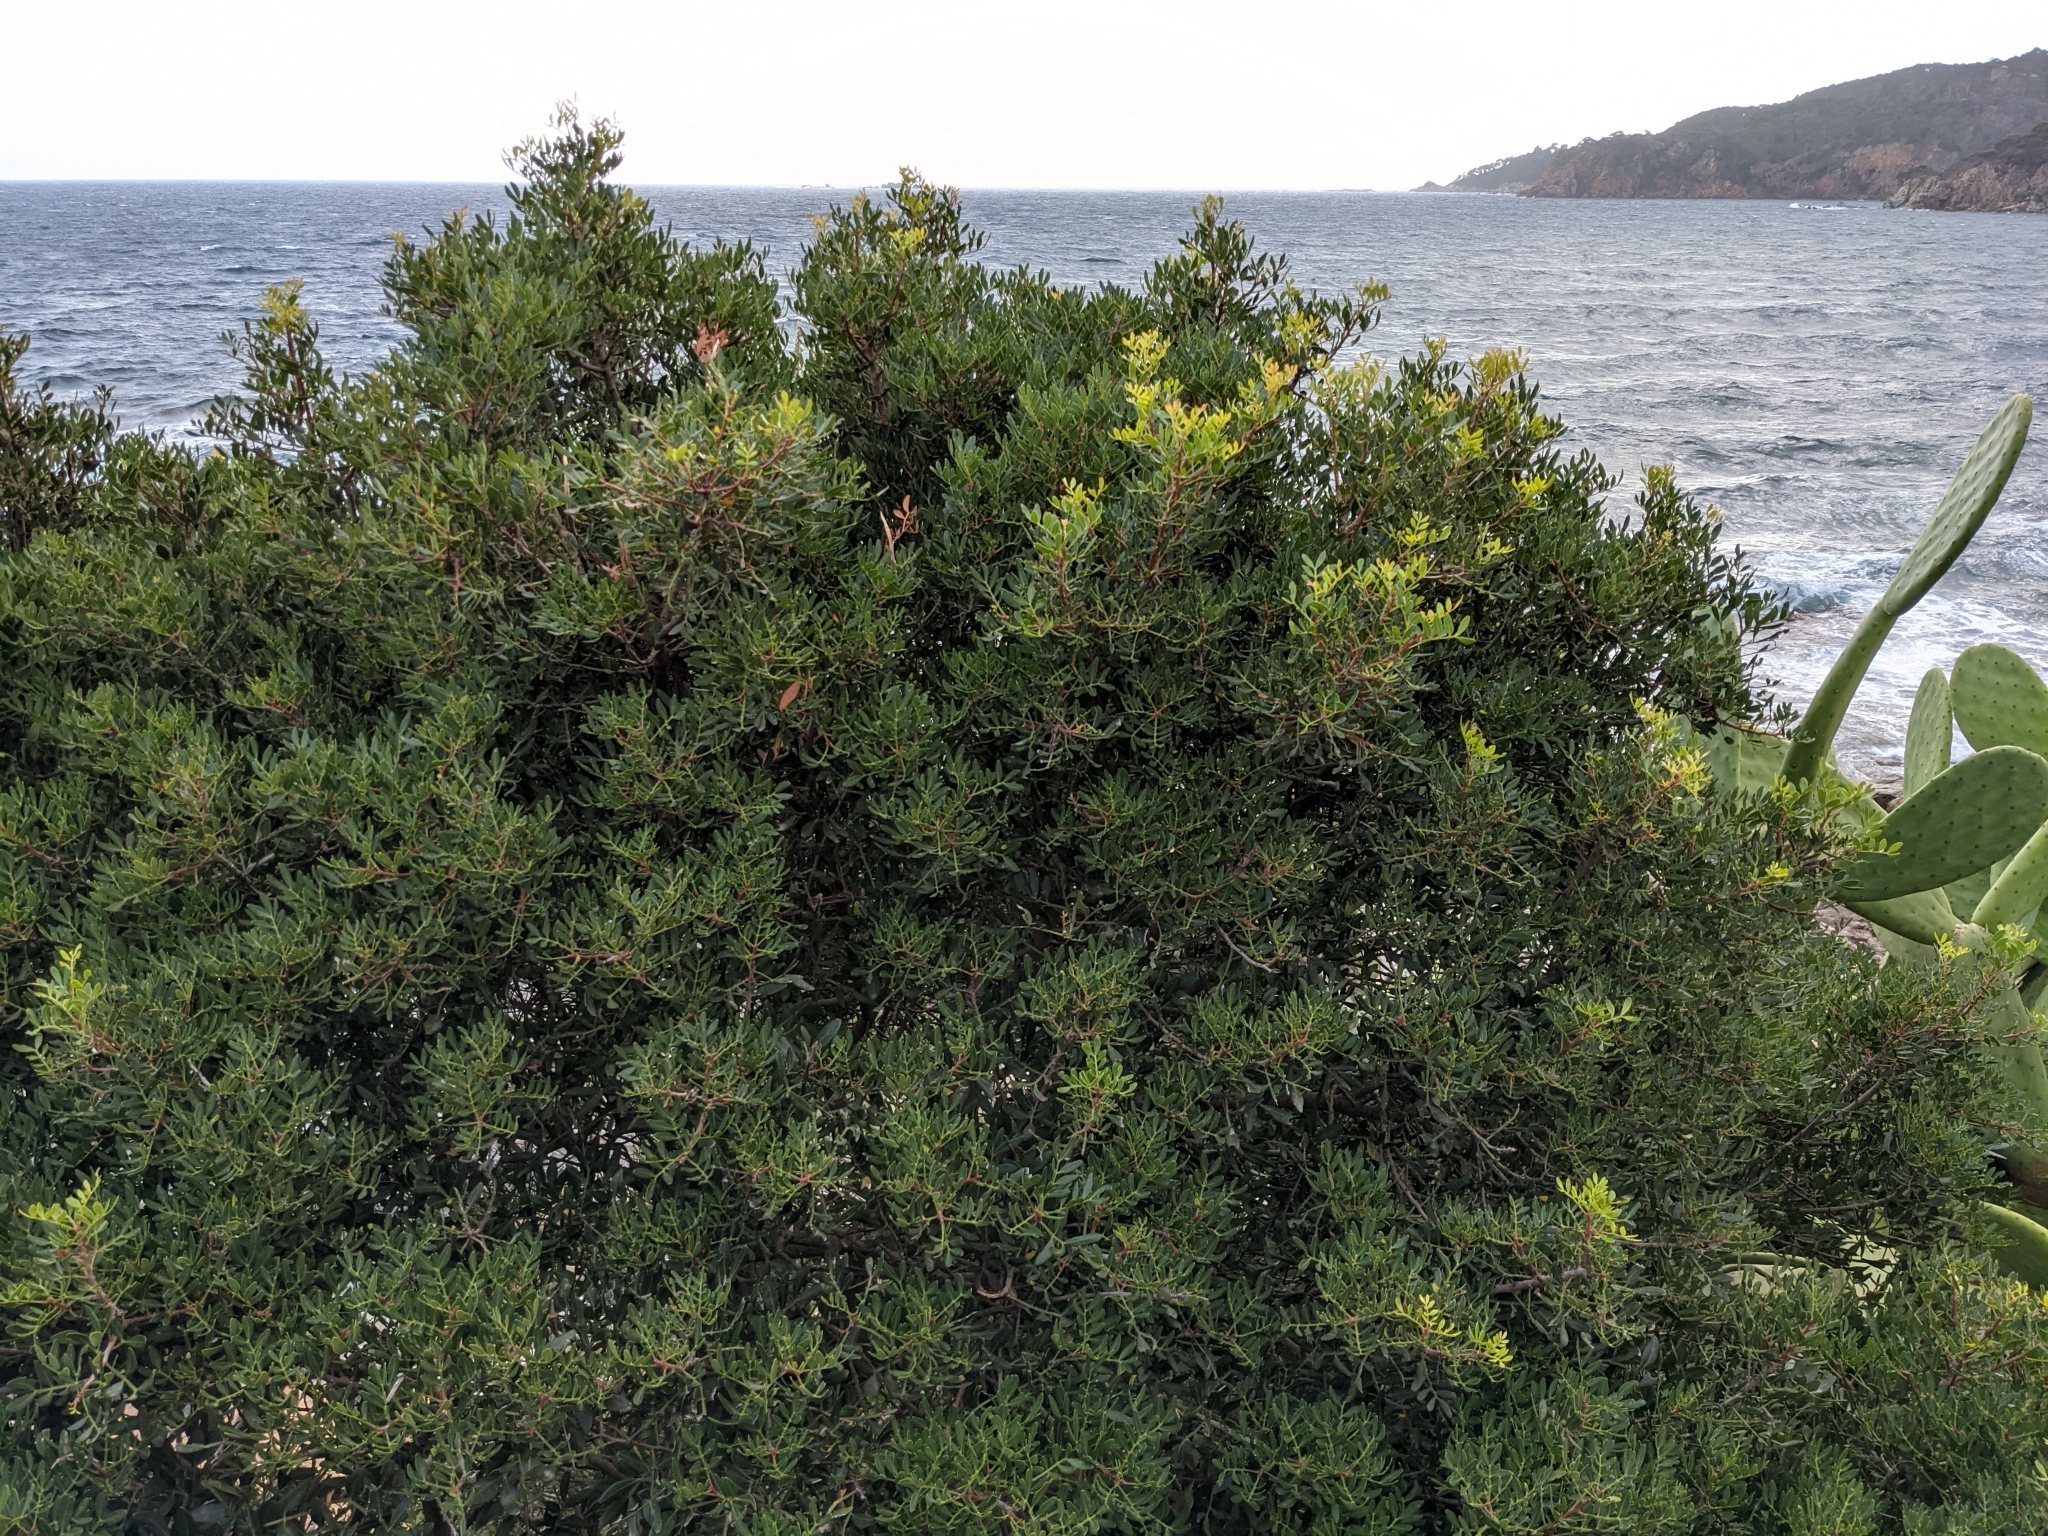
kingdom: Plantae
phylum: Tracheophyta
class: Magnoliopsida
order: Sapindales
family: Anacardiaceae
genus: Pistacia
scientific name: Pistacia lentiscus
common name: Lentisk
